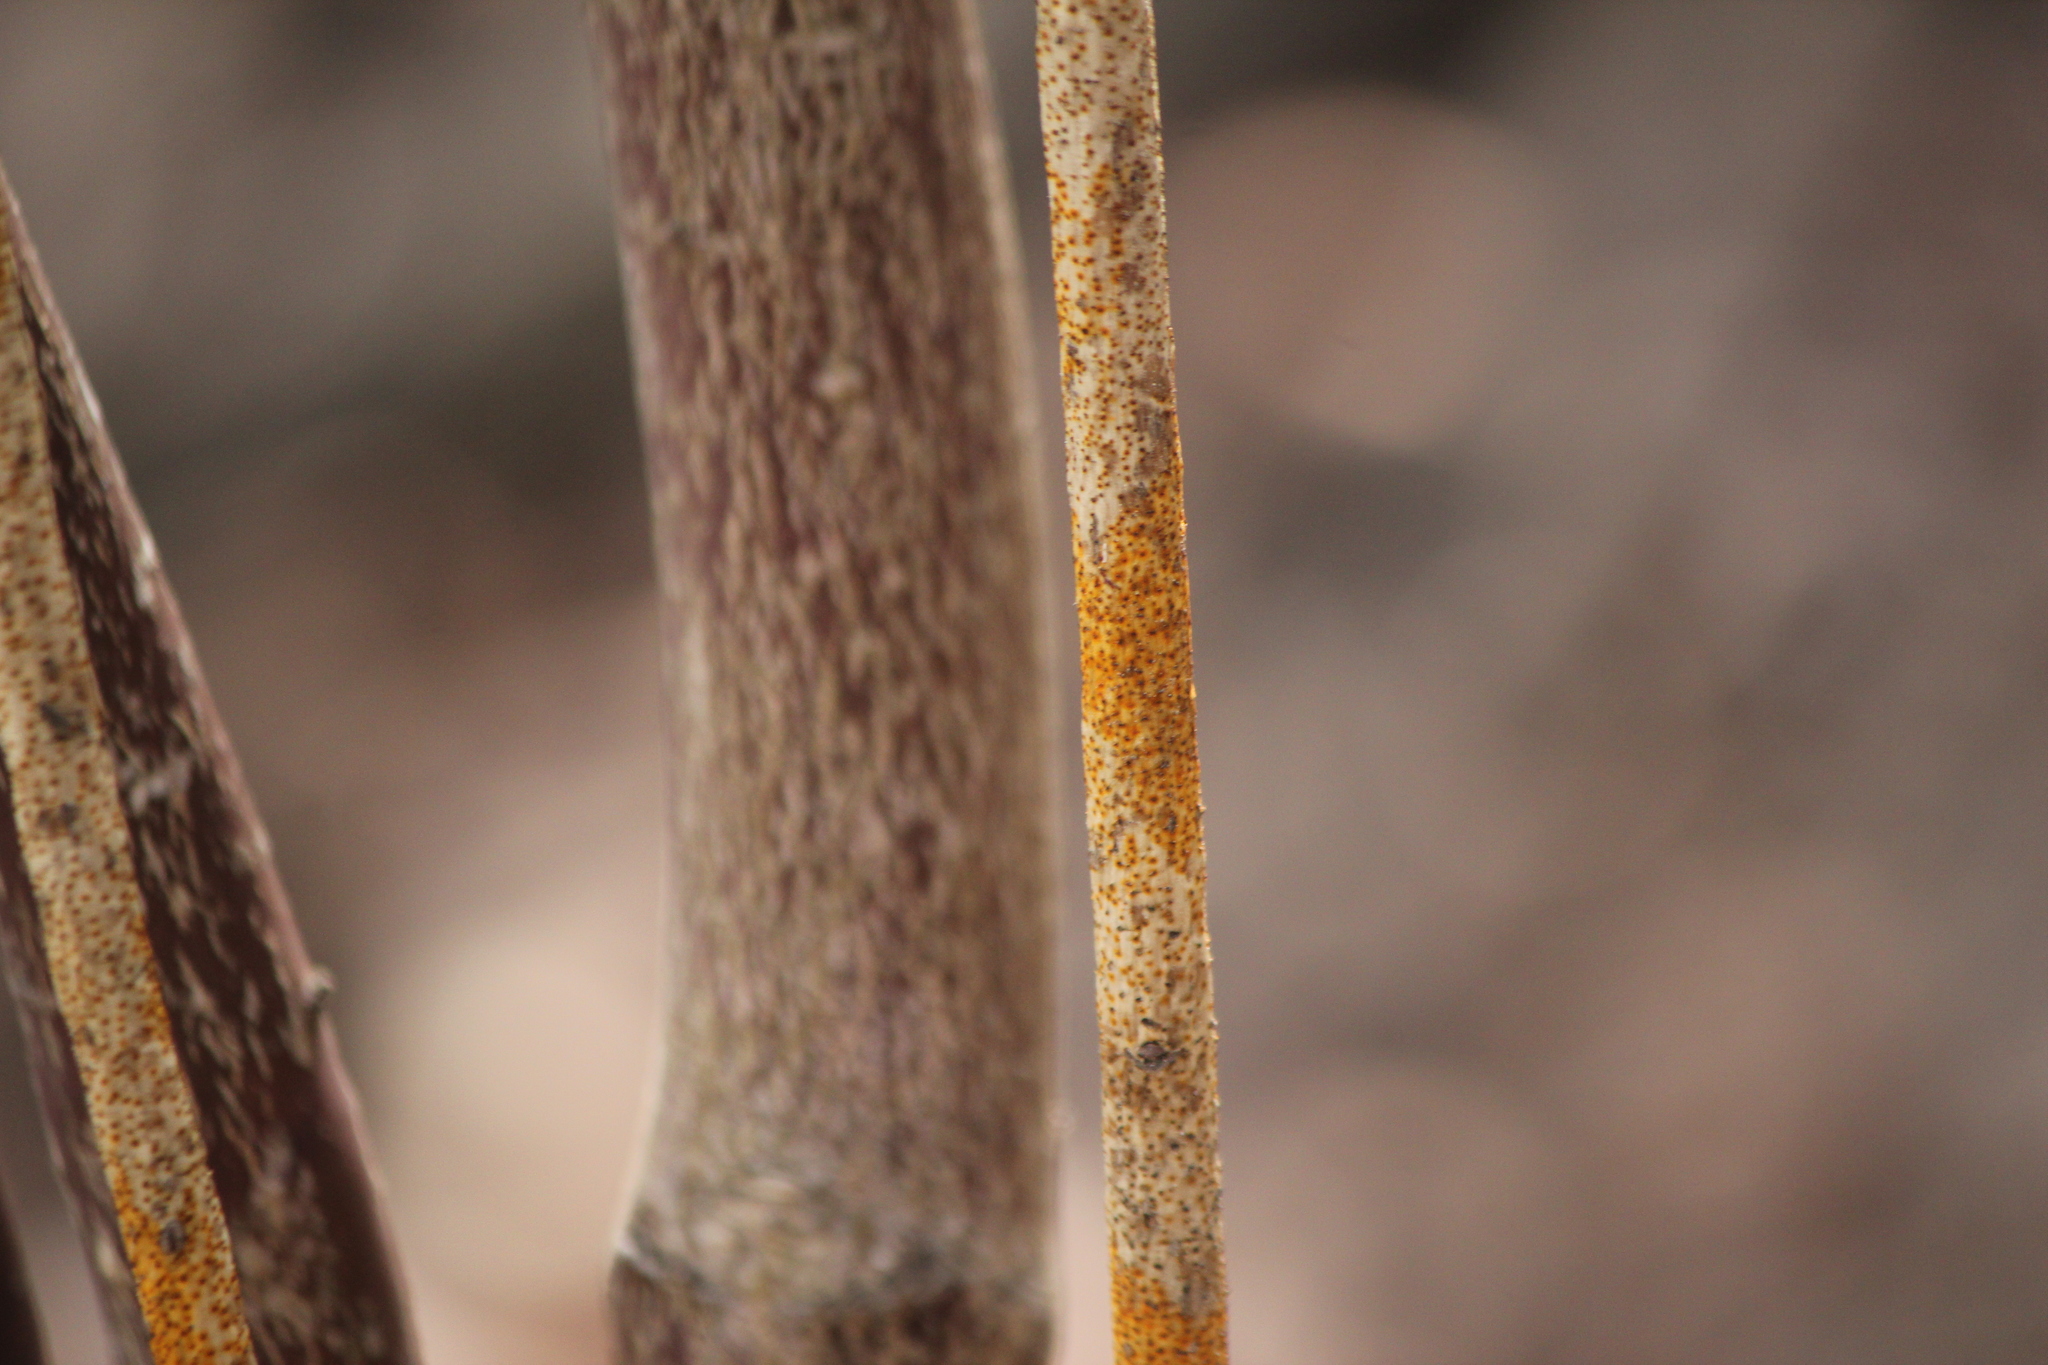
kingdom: Fungi
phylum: Ascomycota
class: Sordariomycetes
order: Diaporthales
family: Cryphonectriaceae
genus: Aurantioporthe
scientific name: Aurantioporthe corni
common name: Dogwood golden canker
